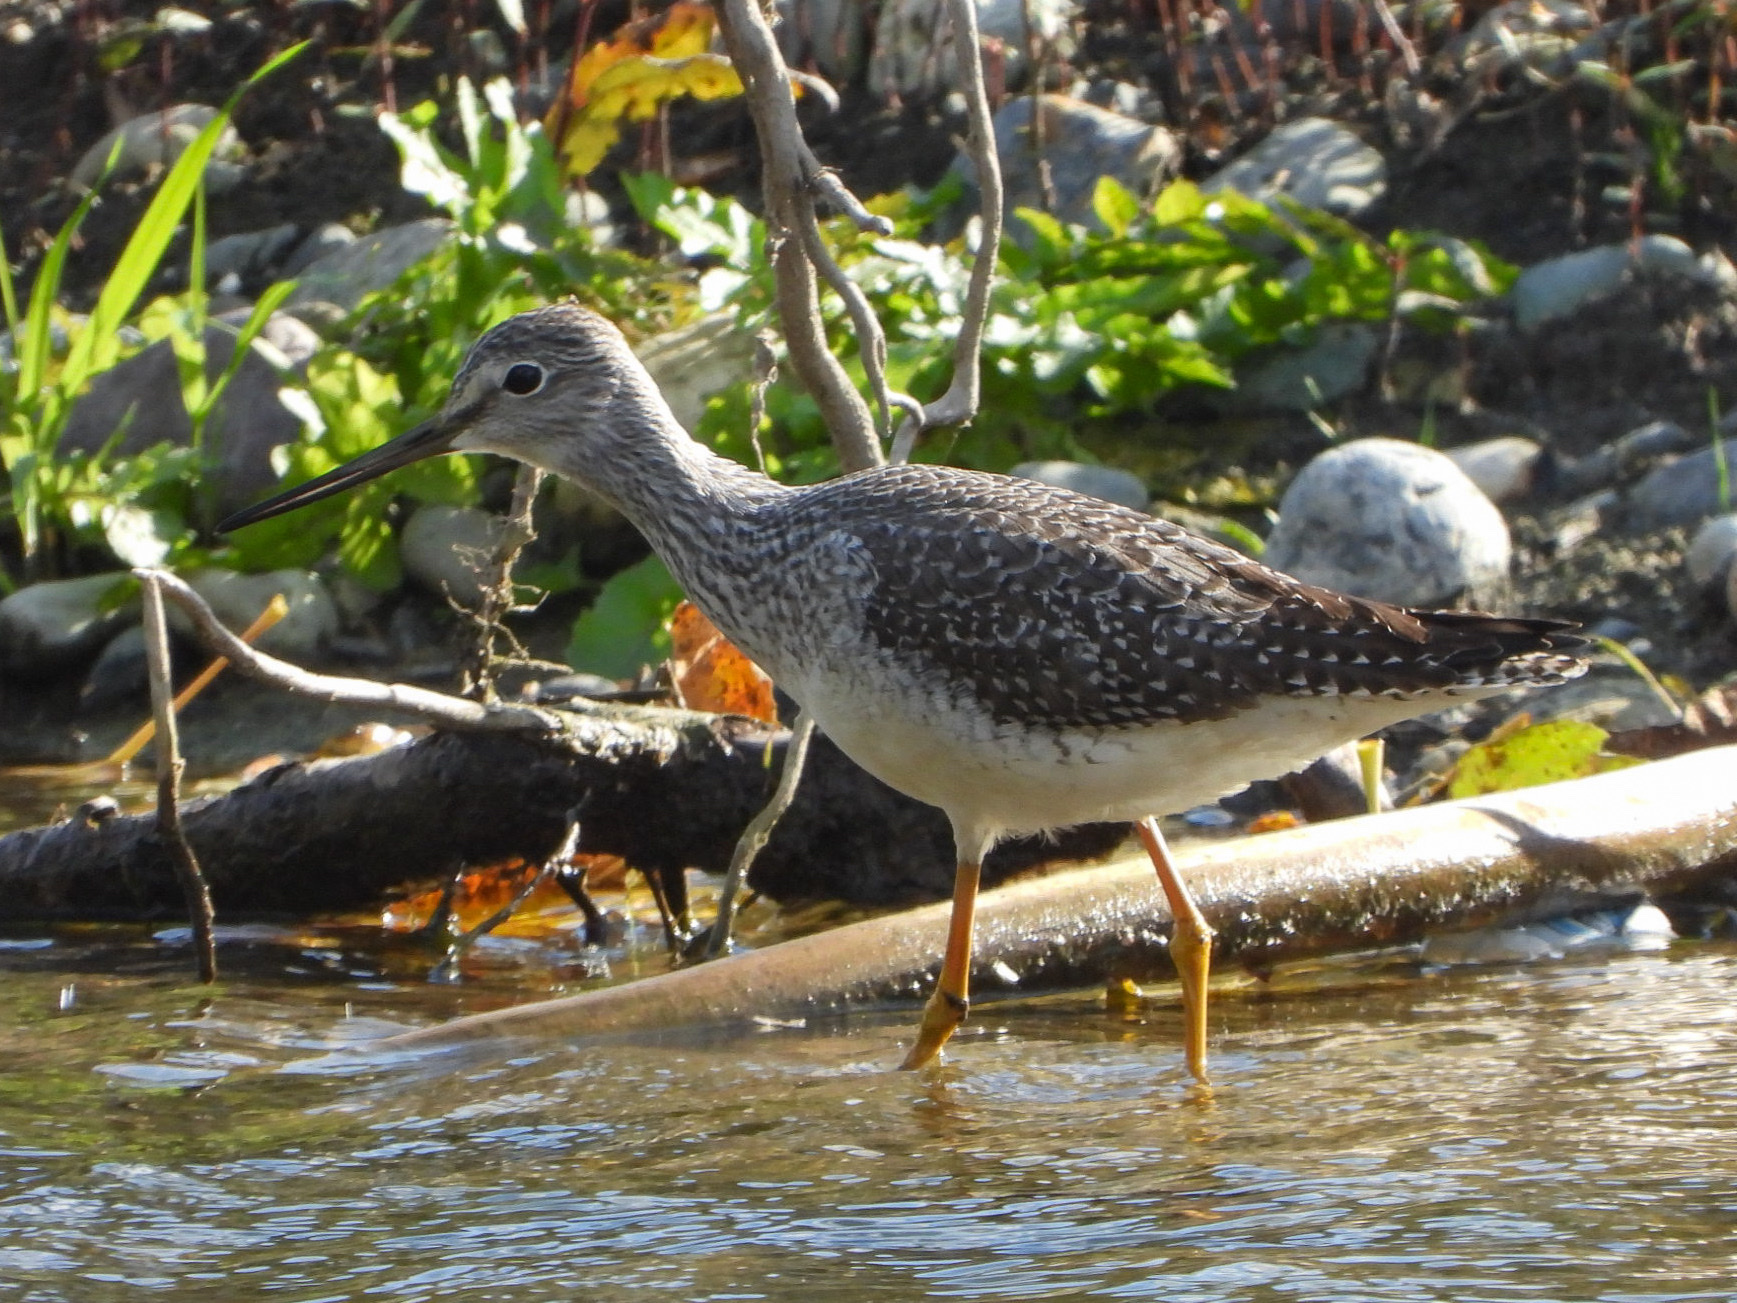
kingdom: Animalia
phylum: Chordata
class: Aves
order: Charadriiformes
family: Scolopacidae
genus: Tringa
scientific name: Tringa melanoleuca
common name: Greater yellowlegs
